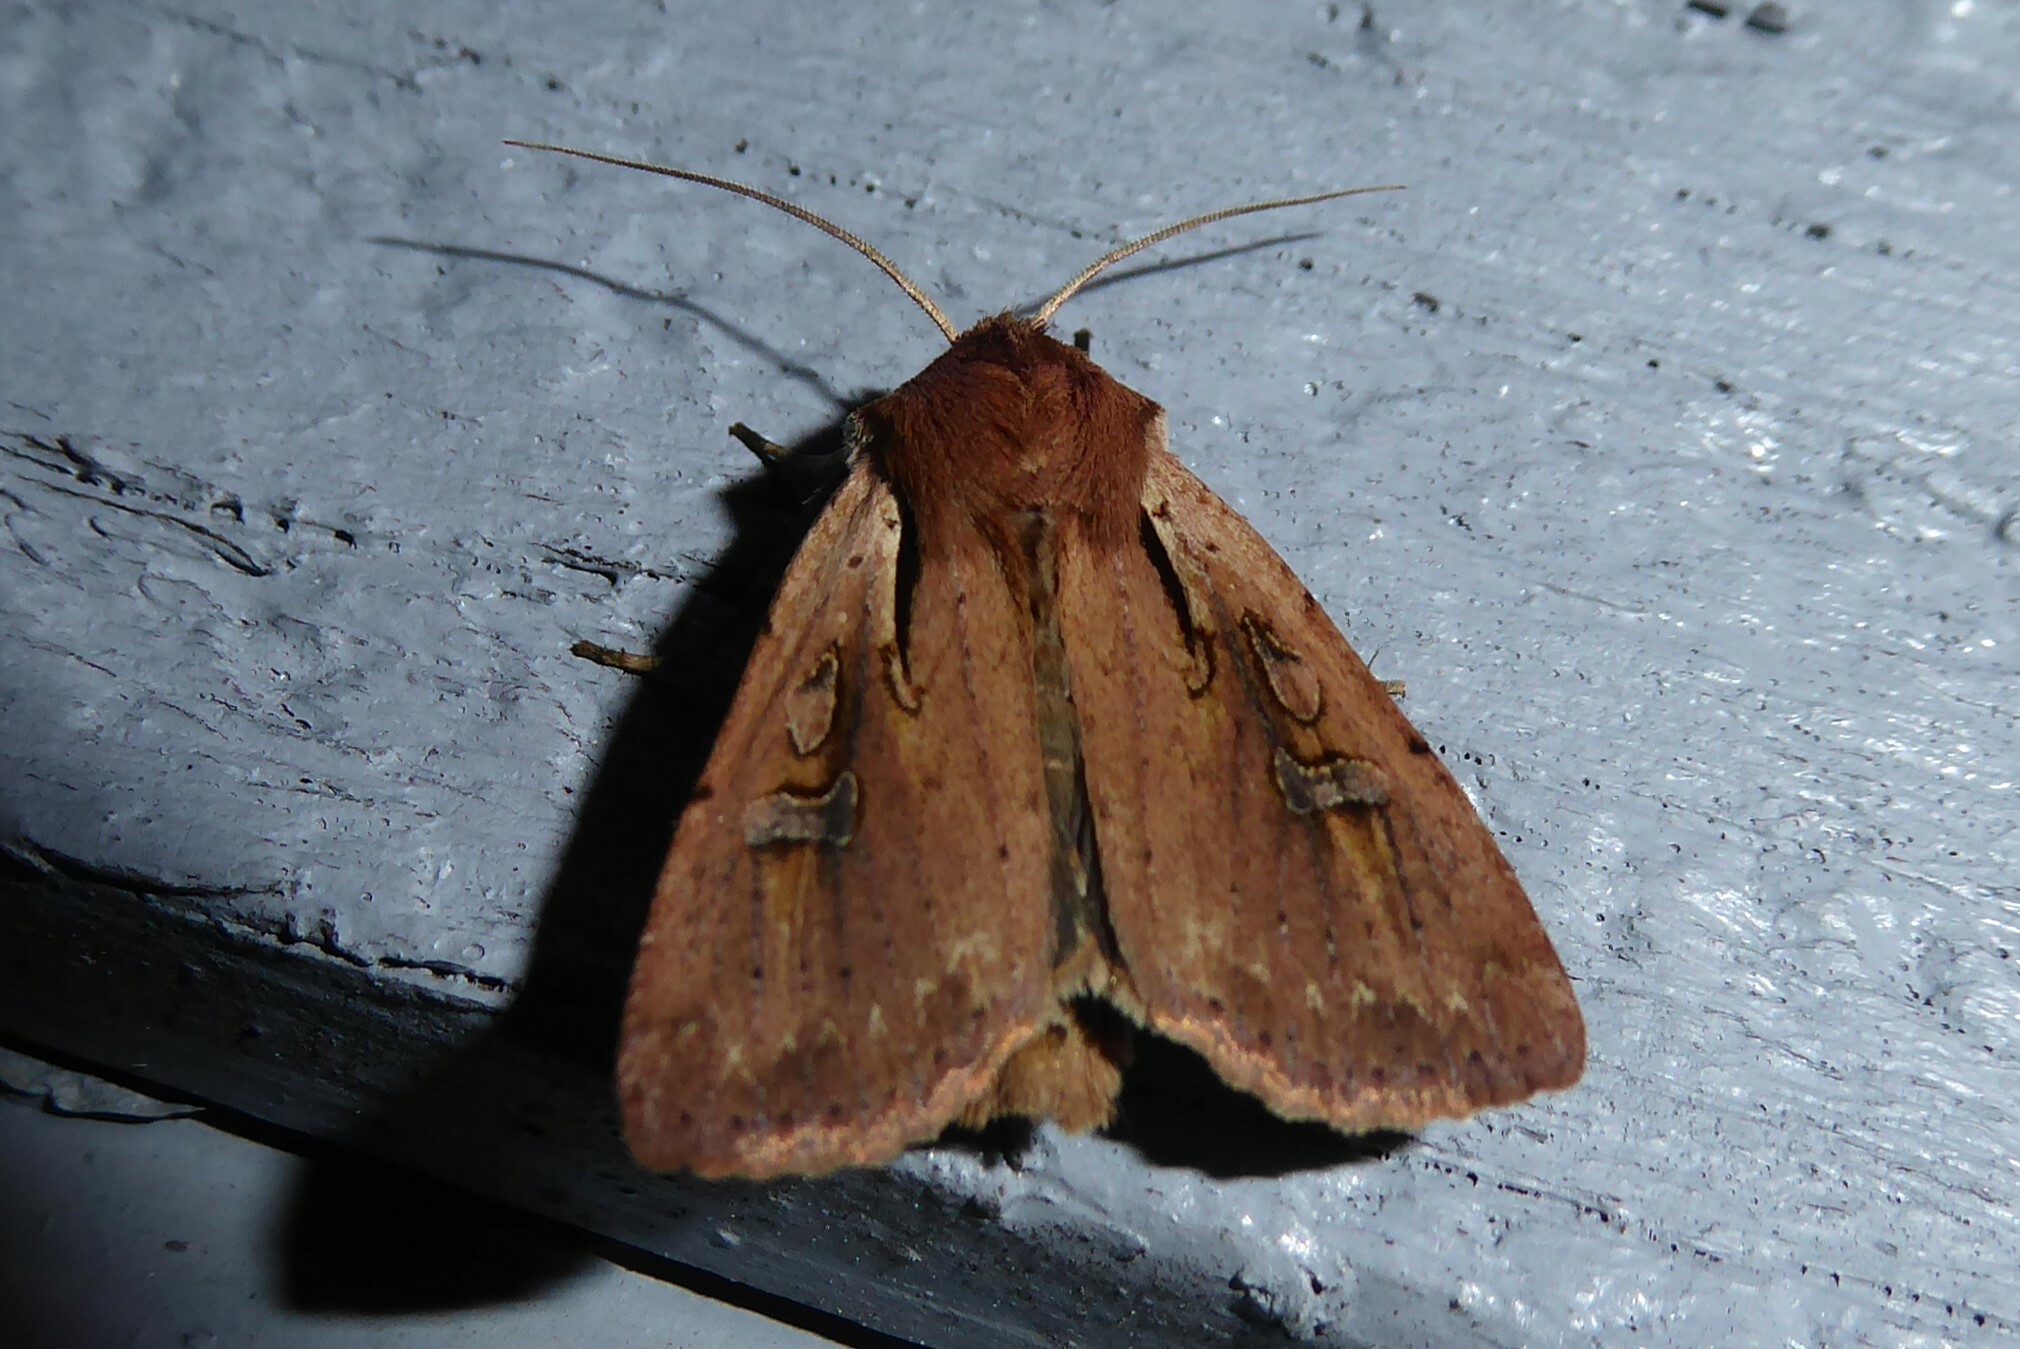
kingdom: Animalia
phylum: Arthropoda
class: Insecta
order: Lepidoptera
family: Noctuidae
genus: Ichneutica
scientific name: Ichneutica atristriga
